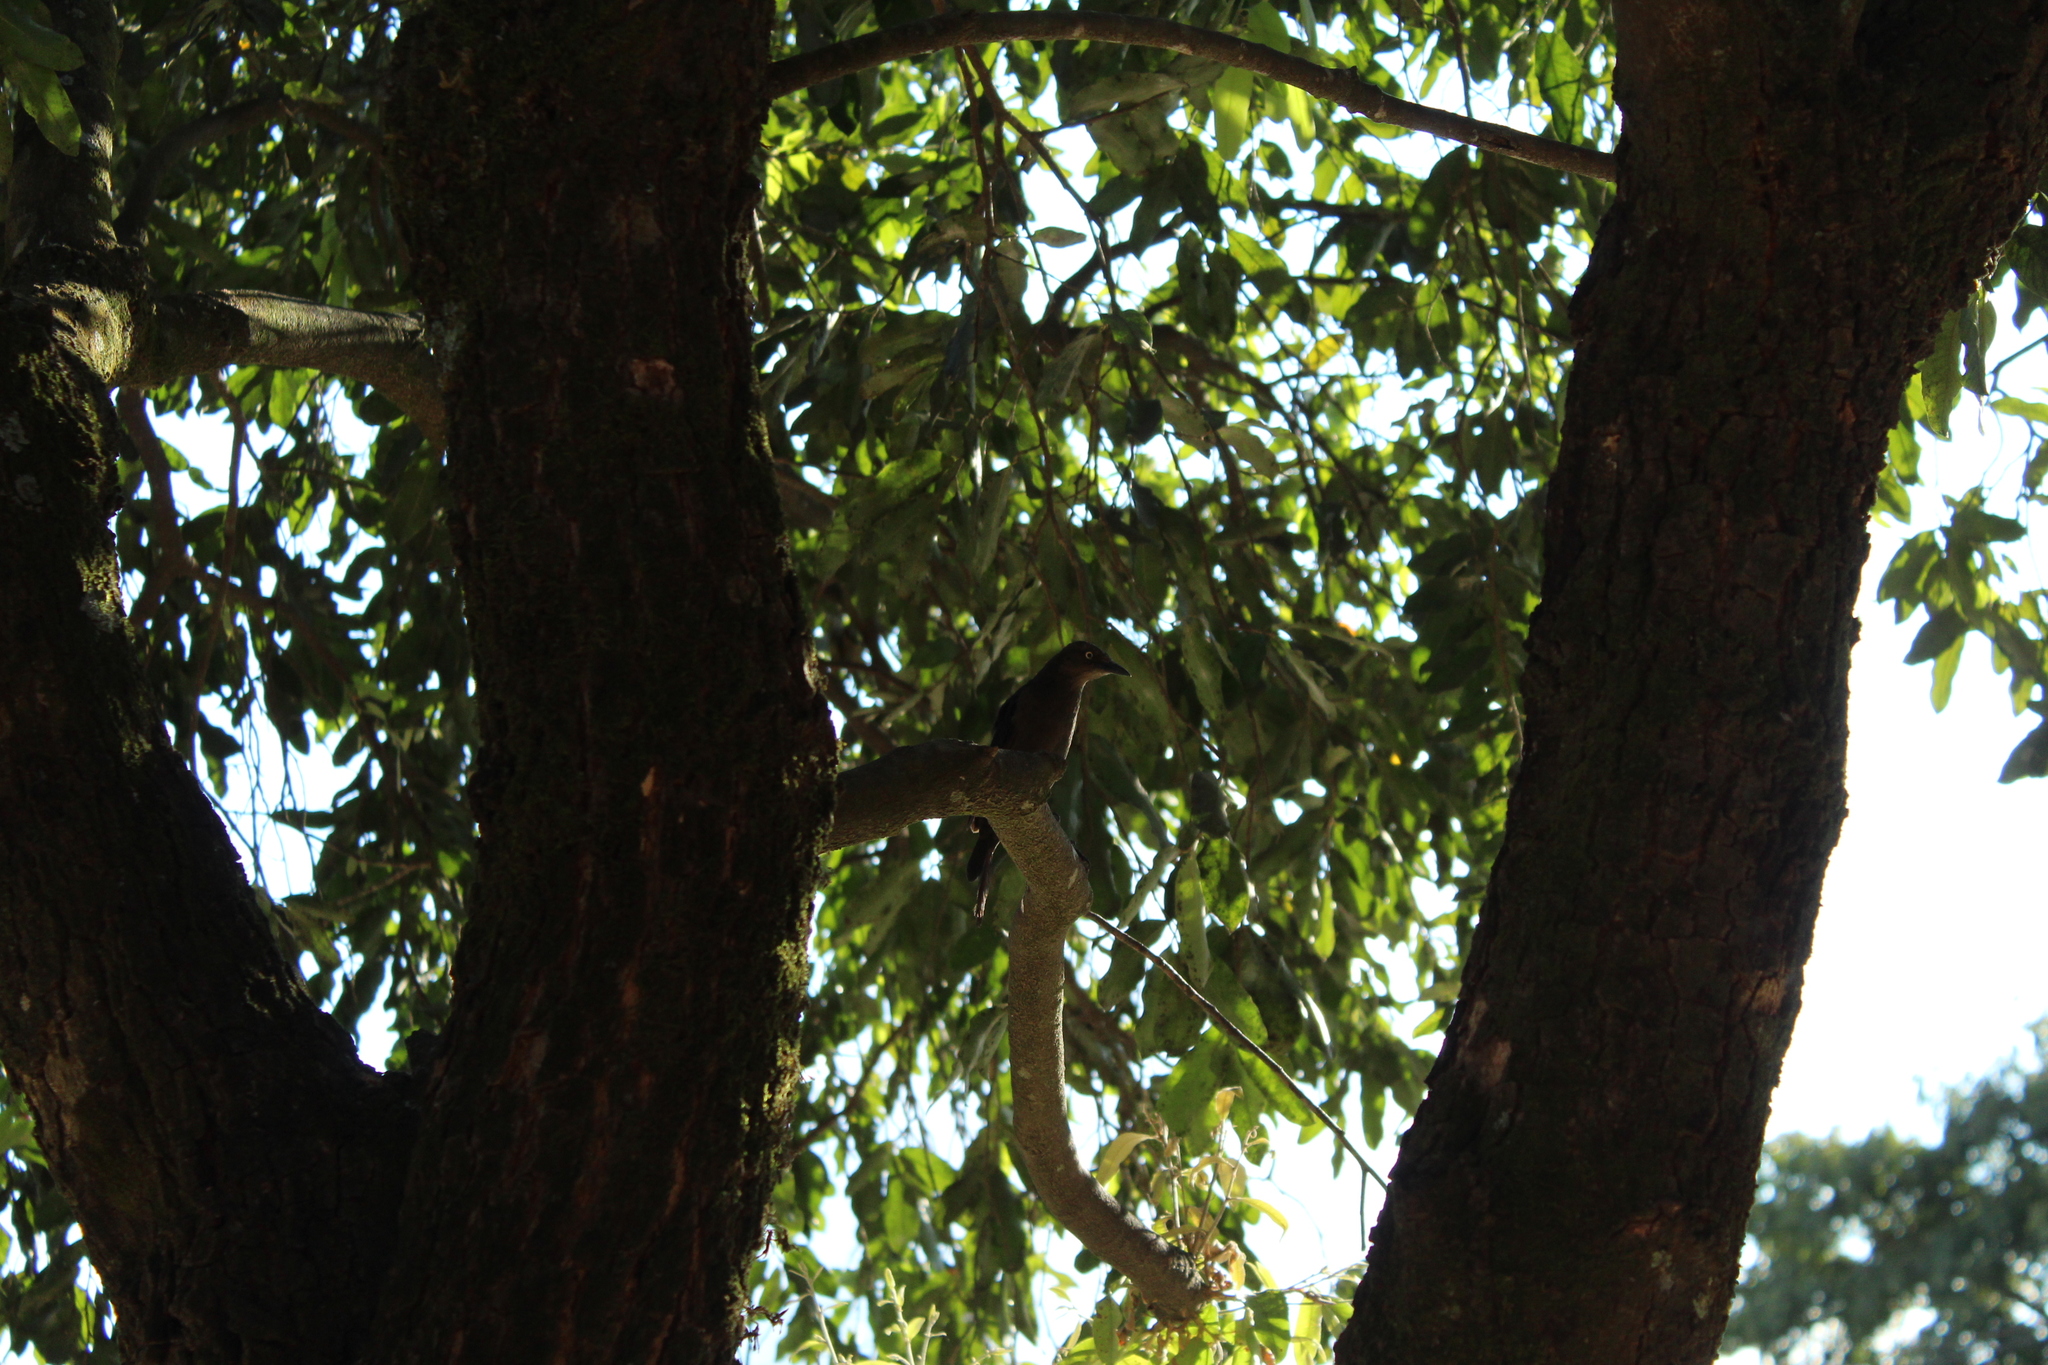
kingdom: Animalia
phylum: Chordata
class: Aves
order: Passeriformes
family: Icteridae
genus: Quiscalus
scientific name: Quiscalus mexicanus
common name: Great-tailed grackle
